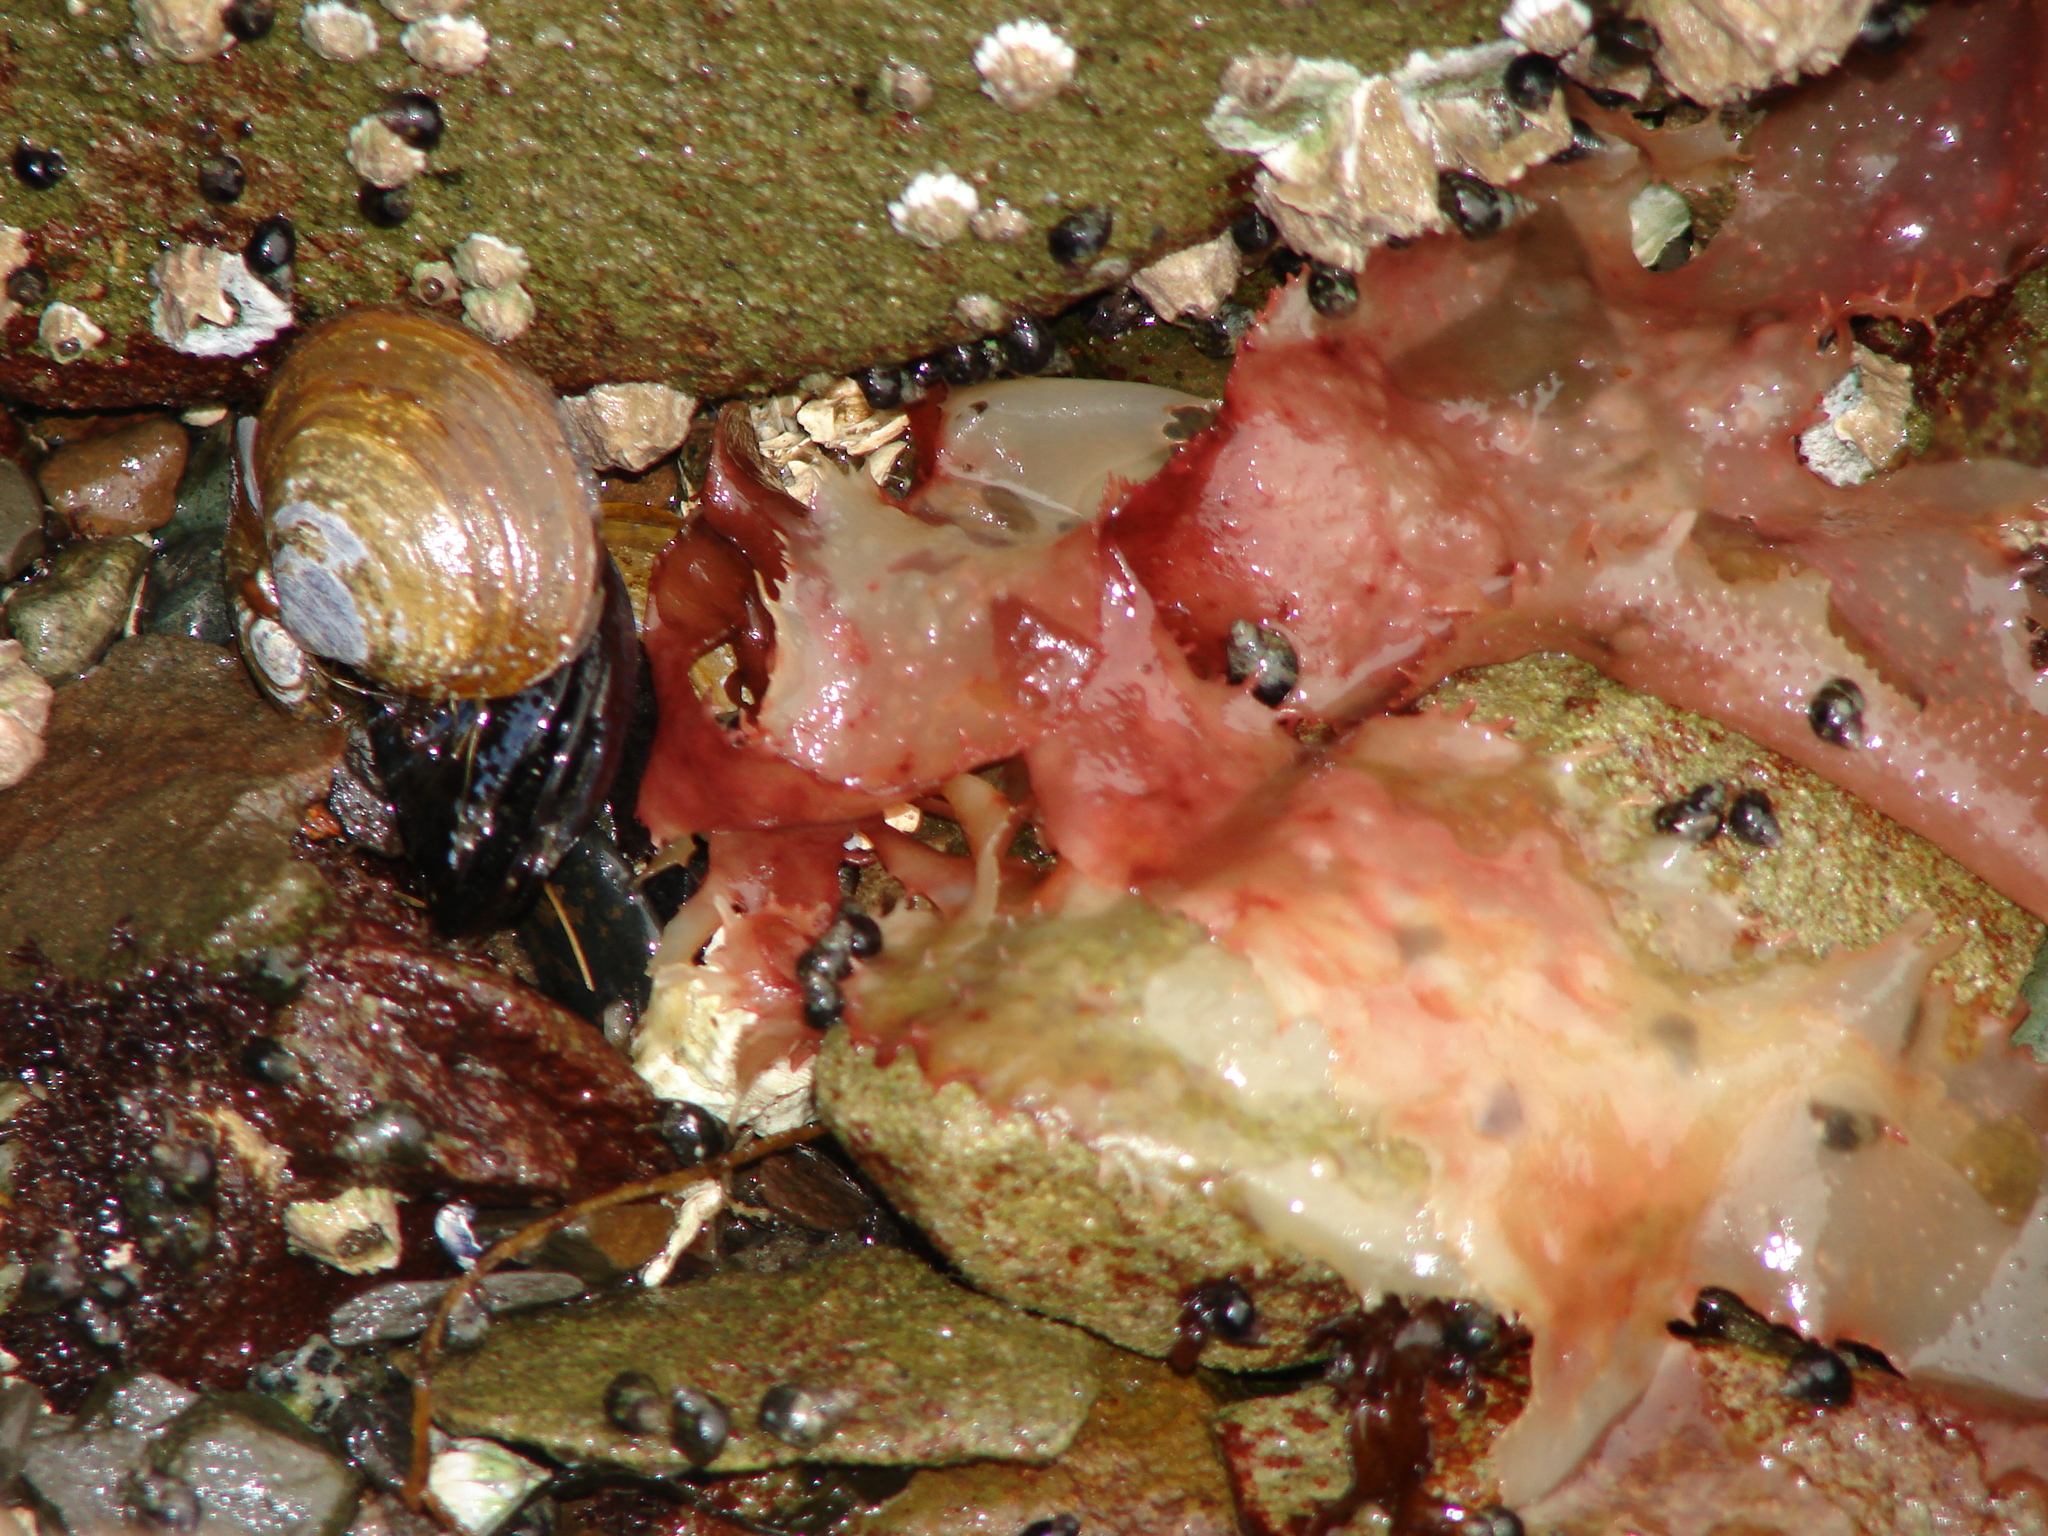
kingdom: Animalia
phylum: Mollusca
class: Bivalvia
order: Cardiida
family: Psammobiidae
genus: Nuttallia
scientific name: Nuttallia obscurata
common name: Purple mahogany-clam
